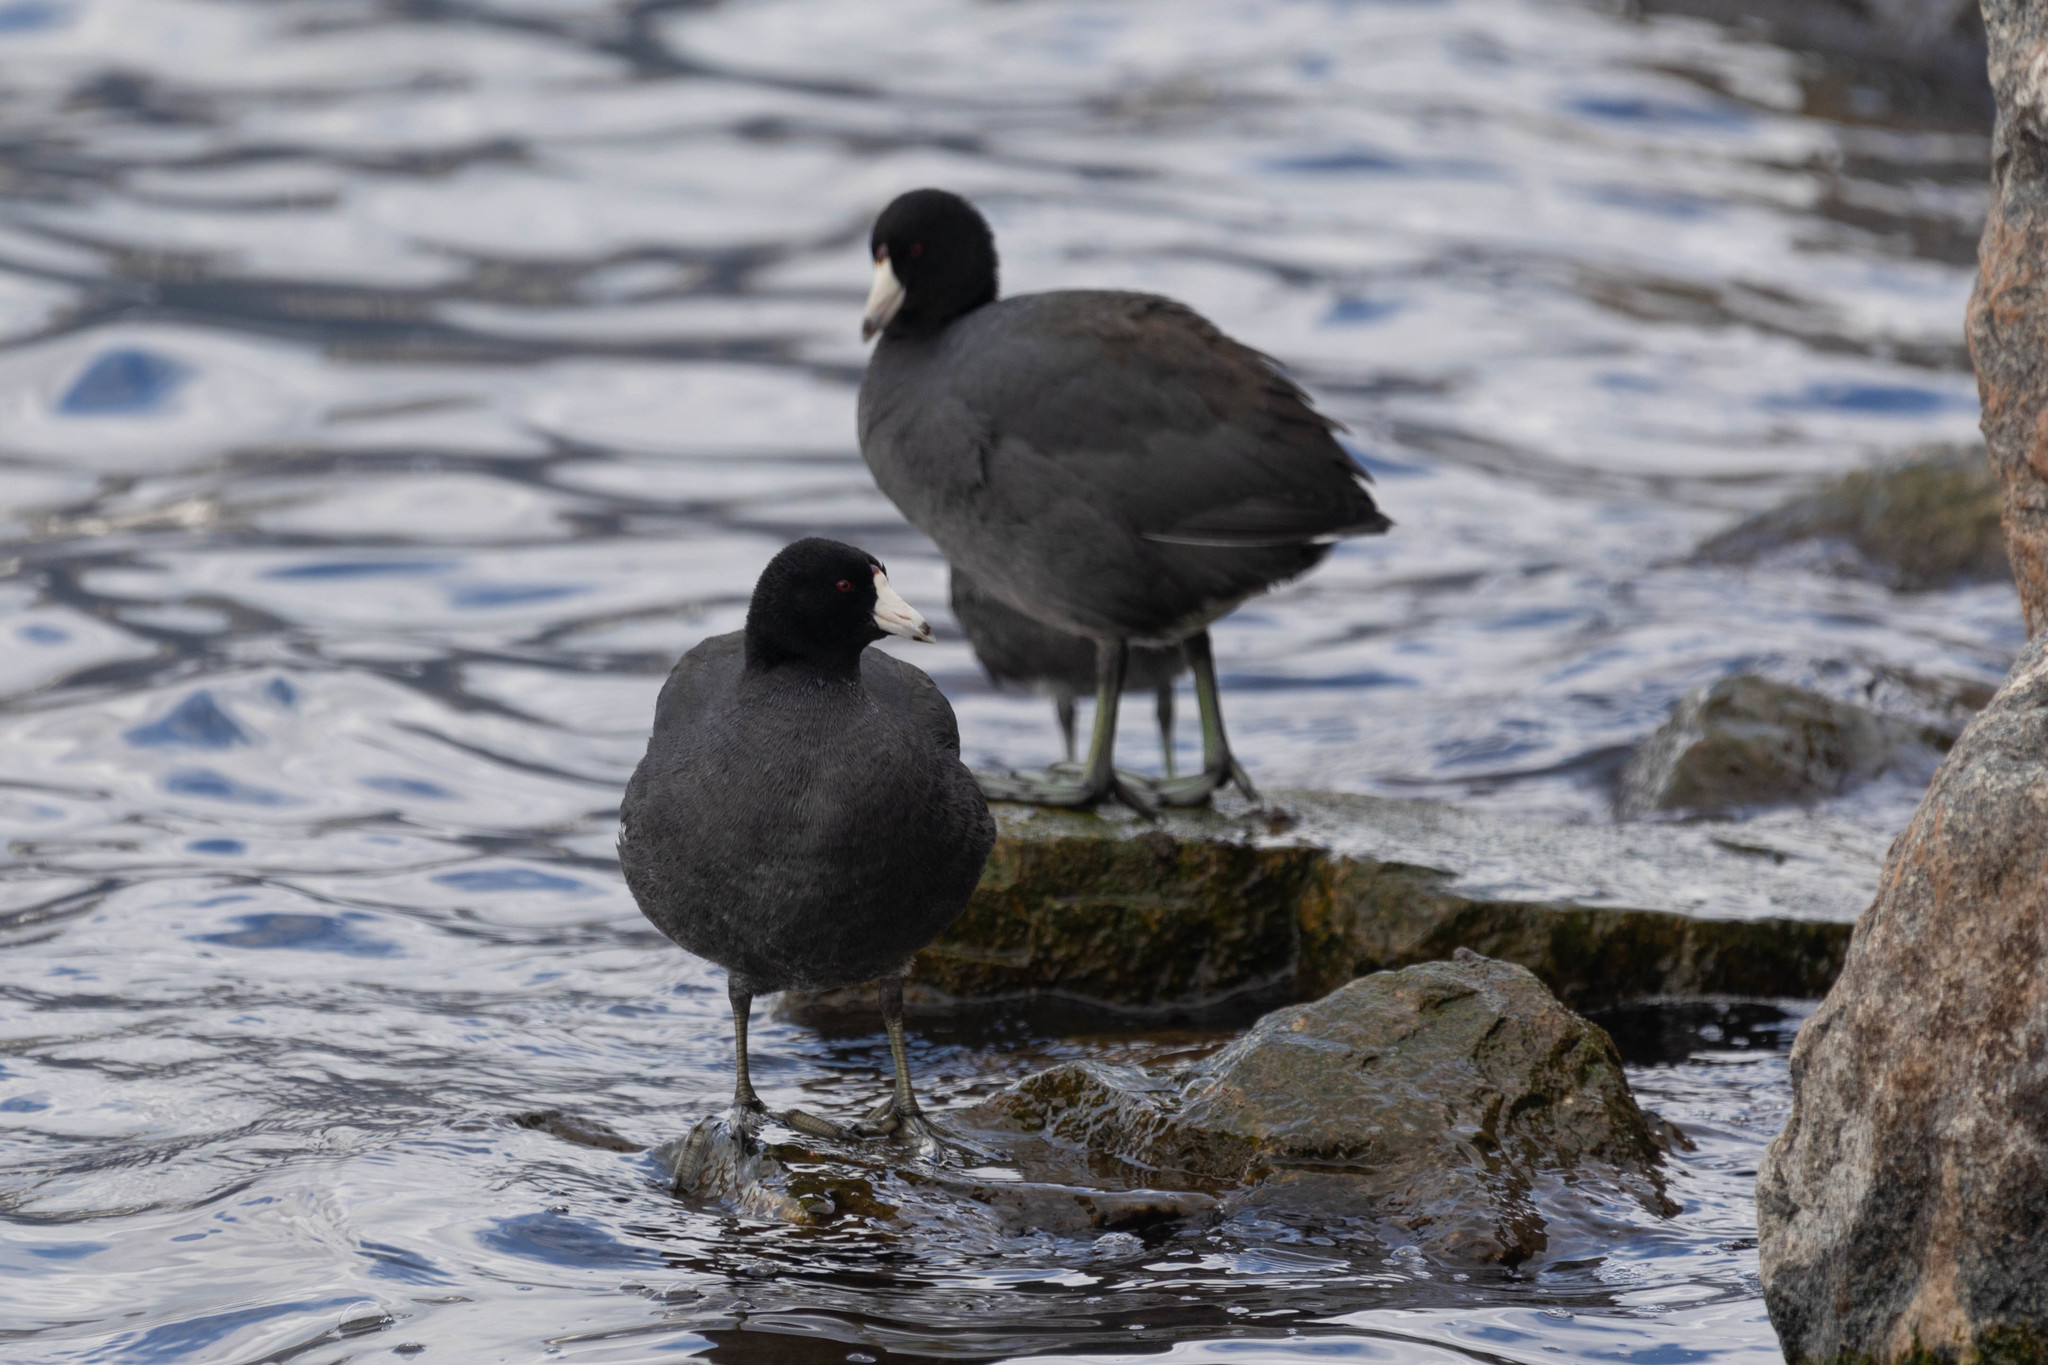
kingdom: Animalia
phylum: Chordata
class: Aves
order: Gruiformes
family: Rallidae
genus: Fulica
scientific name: Fulica americana
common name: American coot
